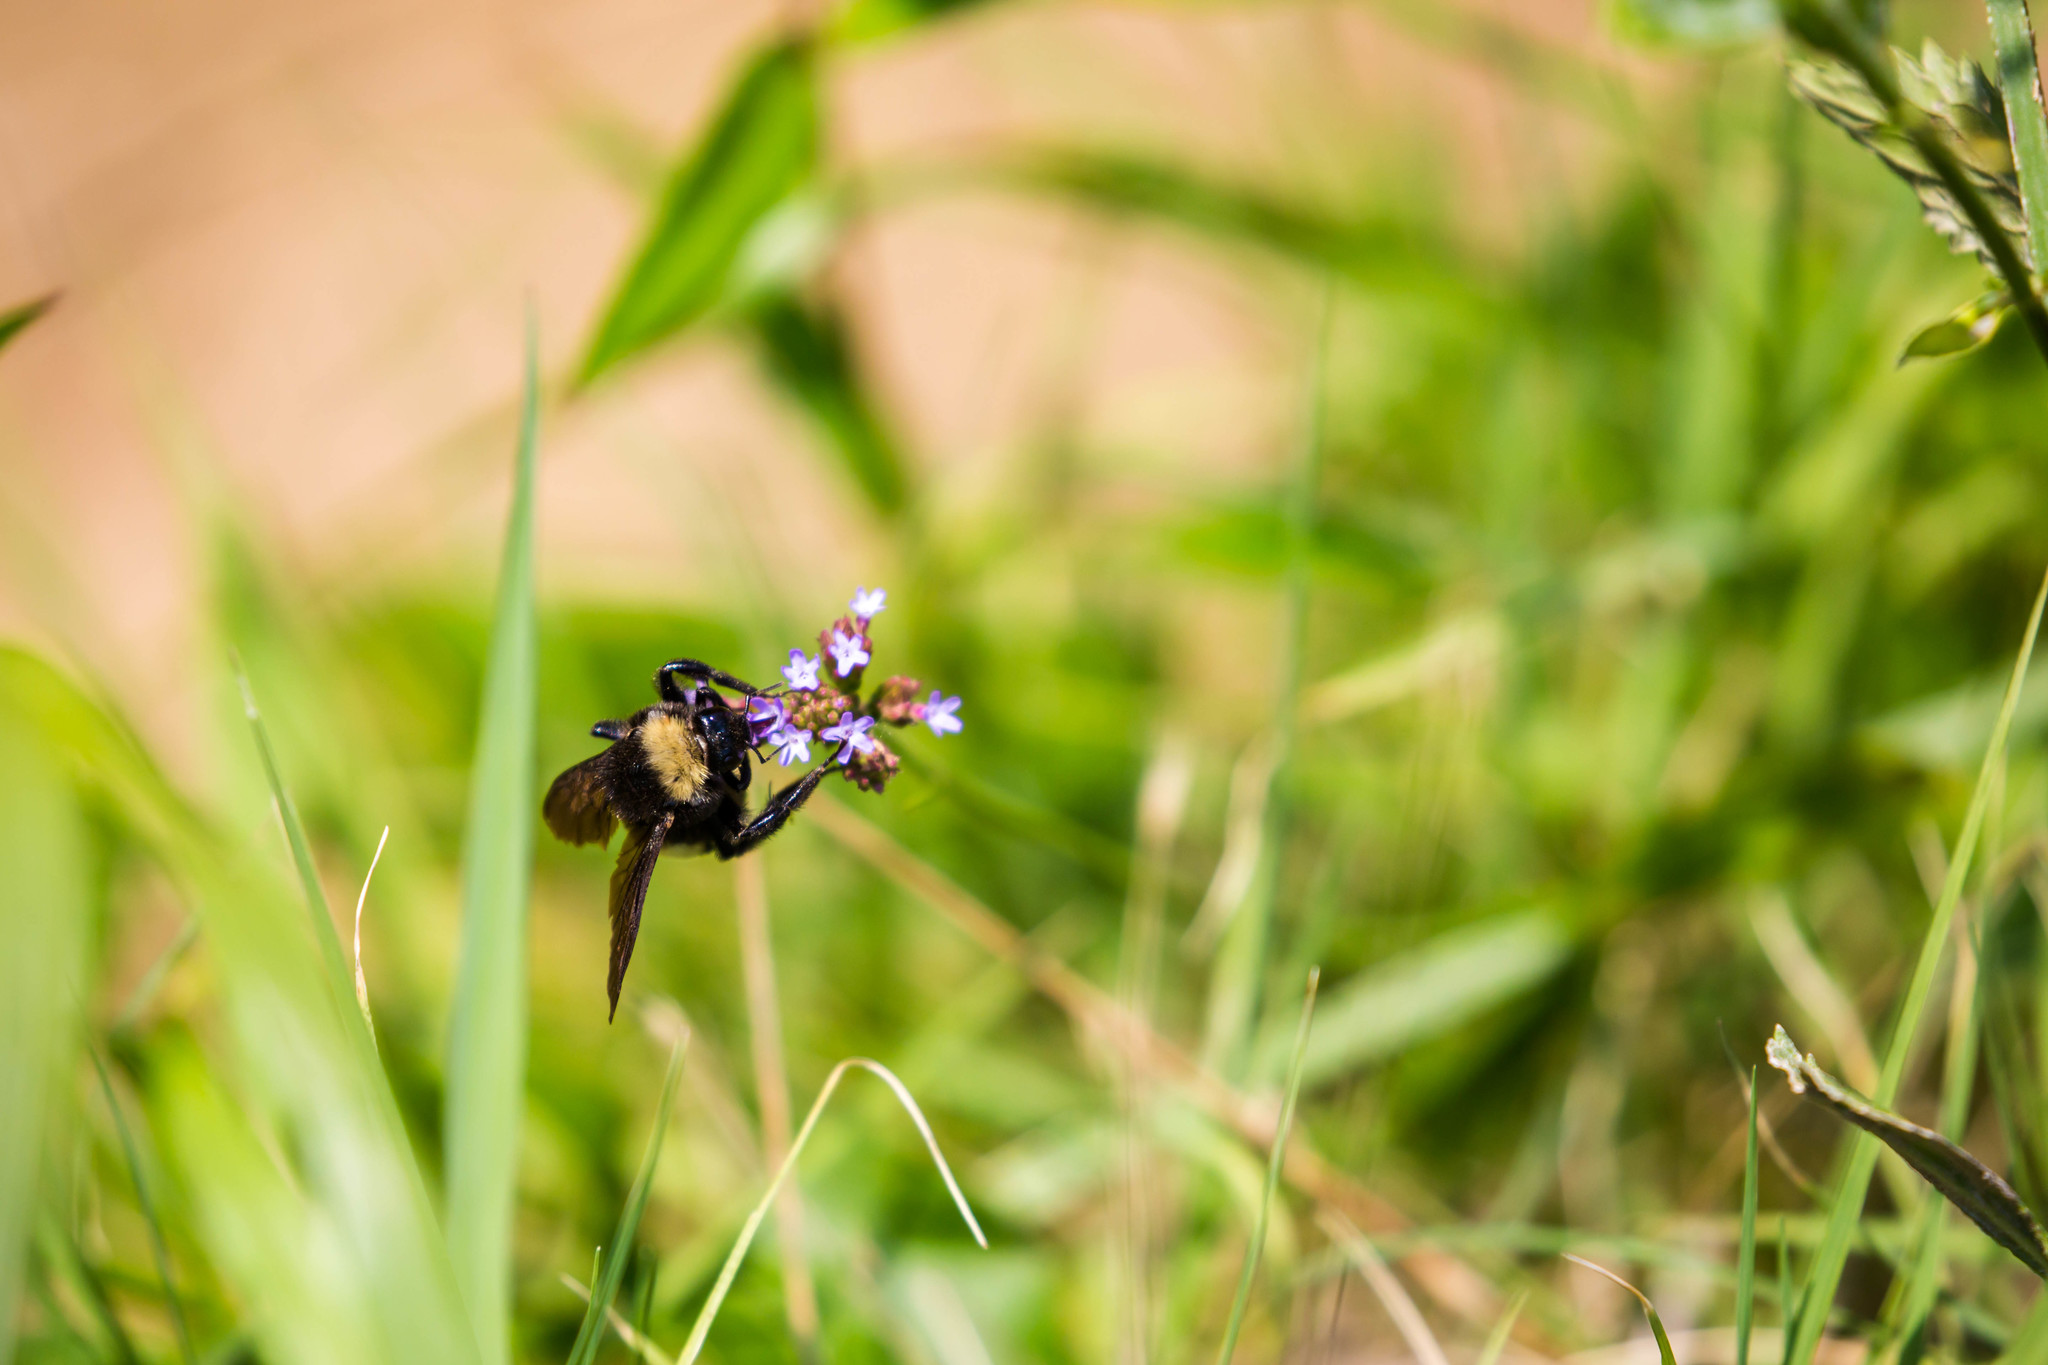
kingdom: Animalia
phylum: Arthropoda
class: Insecta
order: Hymenoptera
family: Apidae
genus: Bombus
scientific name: Bombus pensylvanicus
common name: Bumble bee
